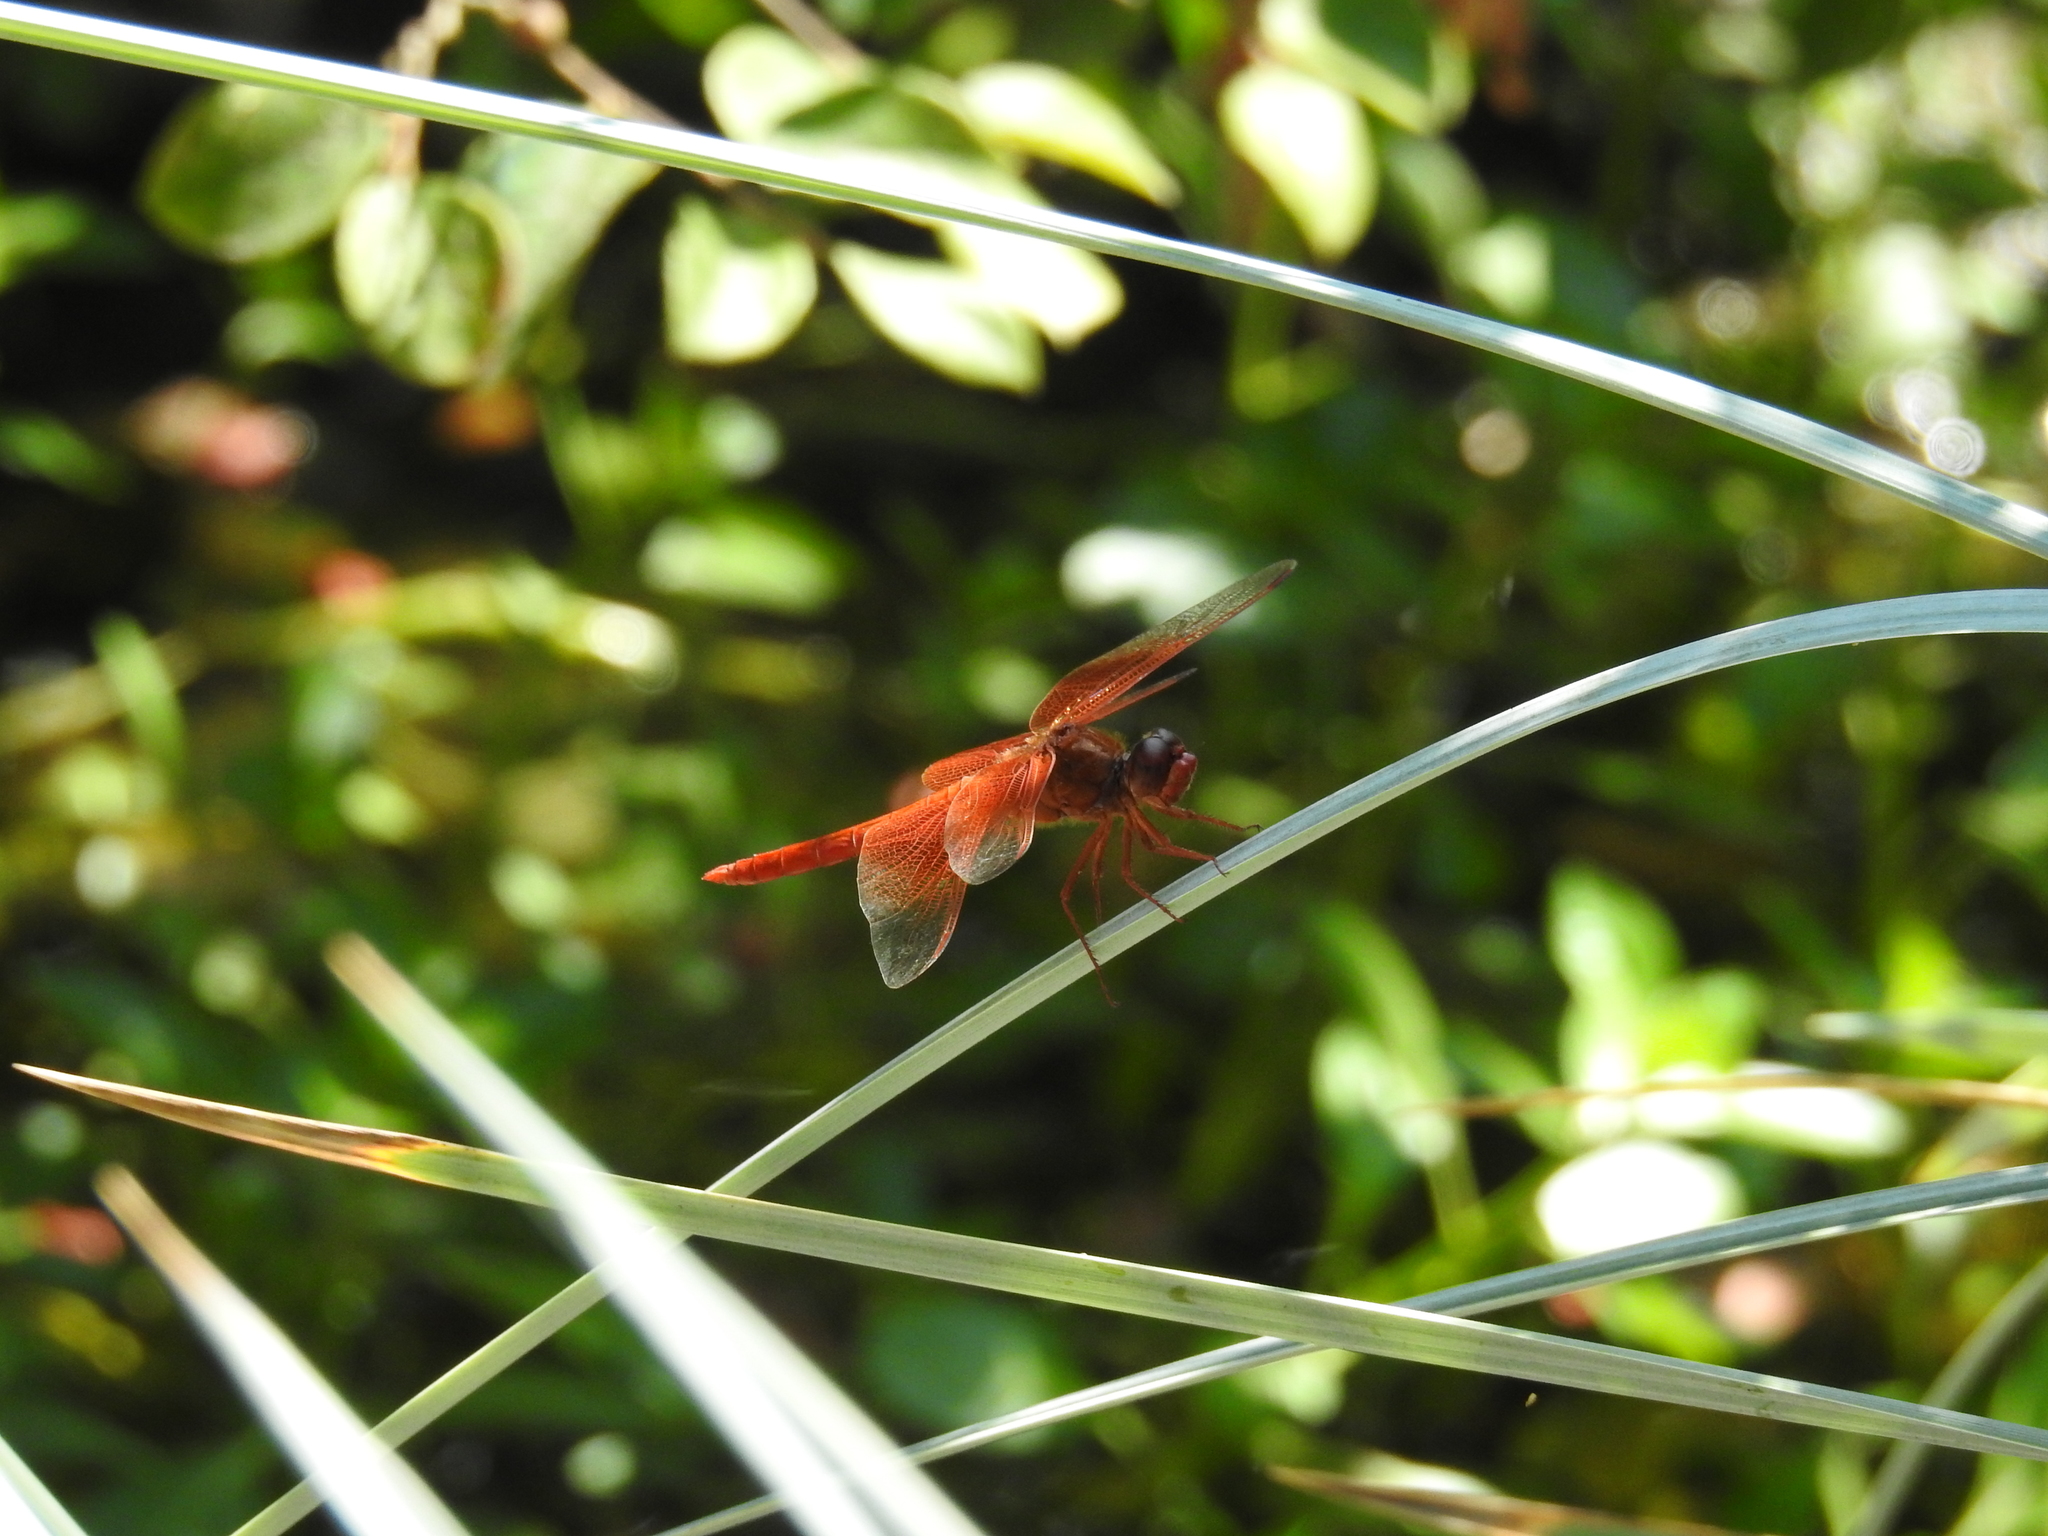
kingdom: Animalia
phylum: Arthropoda
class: Insecta
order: Odonata
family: Libellulidae
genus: Libellula
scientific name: Libellula saturata
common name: Flame skimmer
